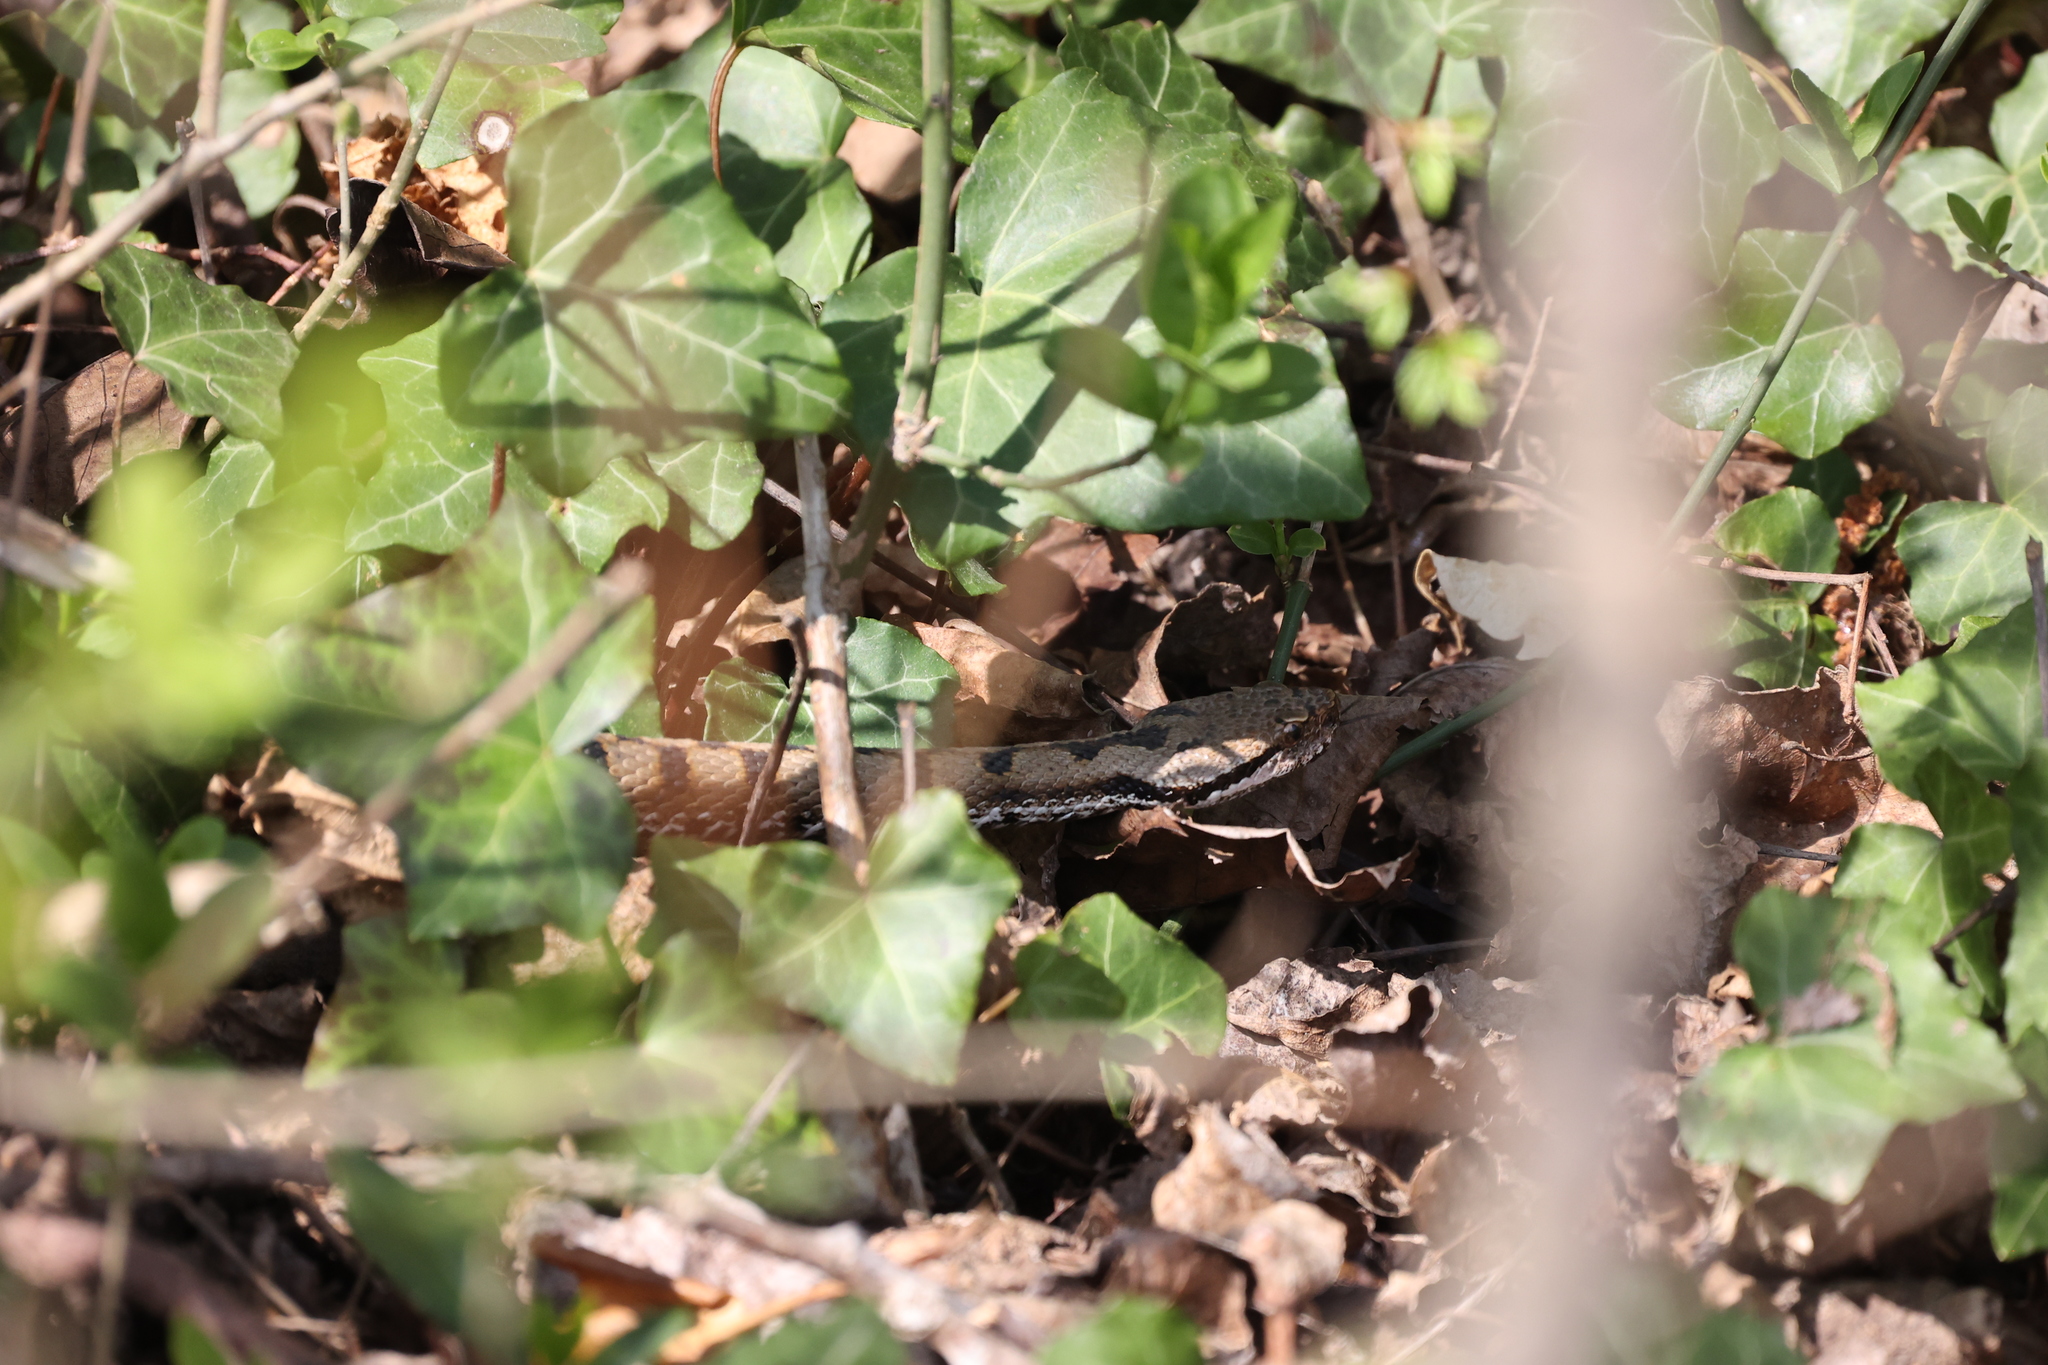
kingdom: Animalia
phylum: Chordata
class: Squamata
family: Viperidae
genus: Vipera
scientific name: Vipera aspis
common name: Asp viper
